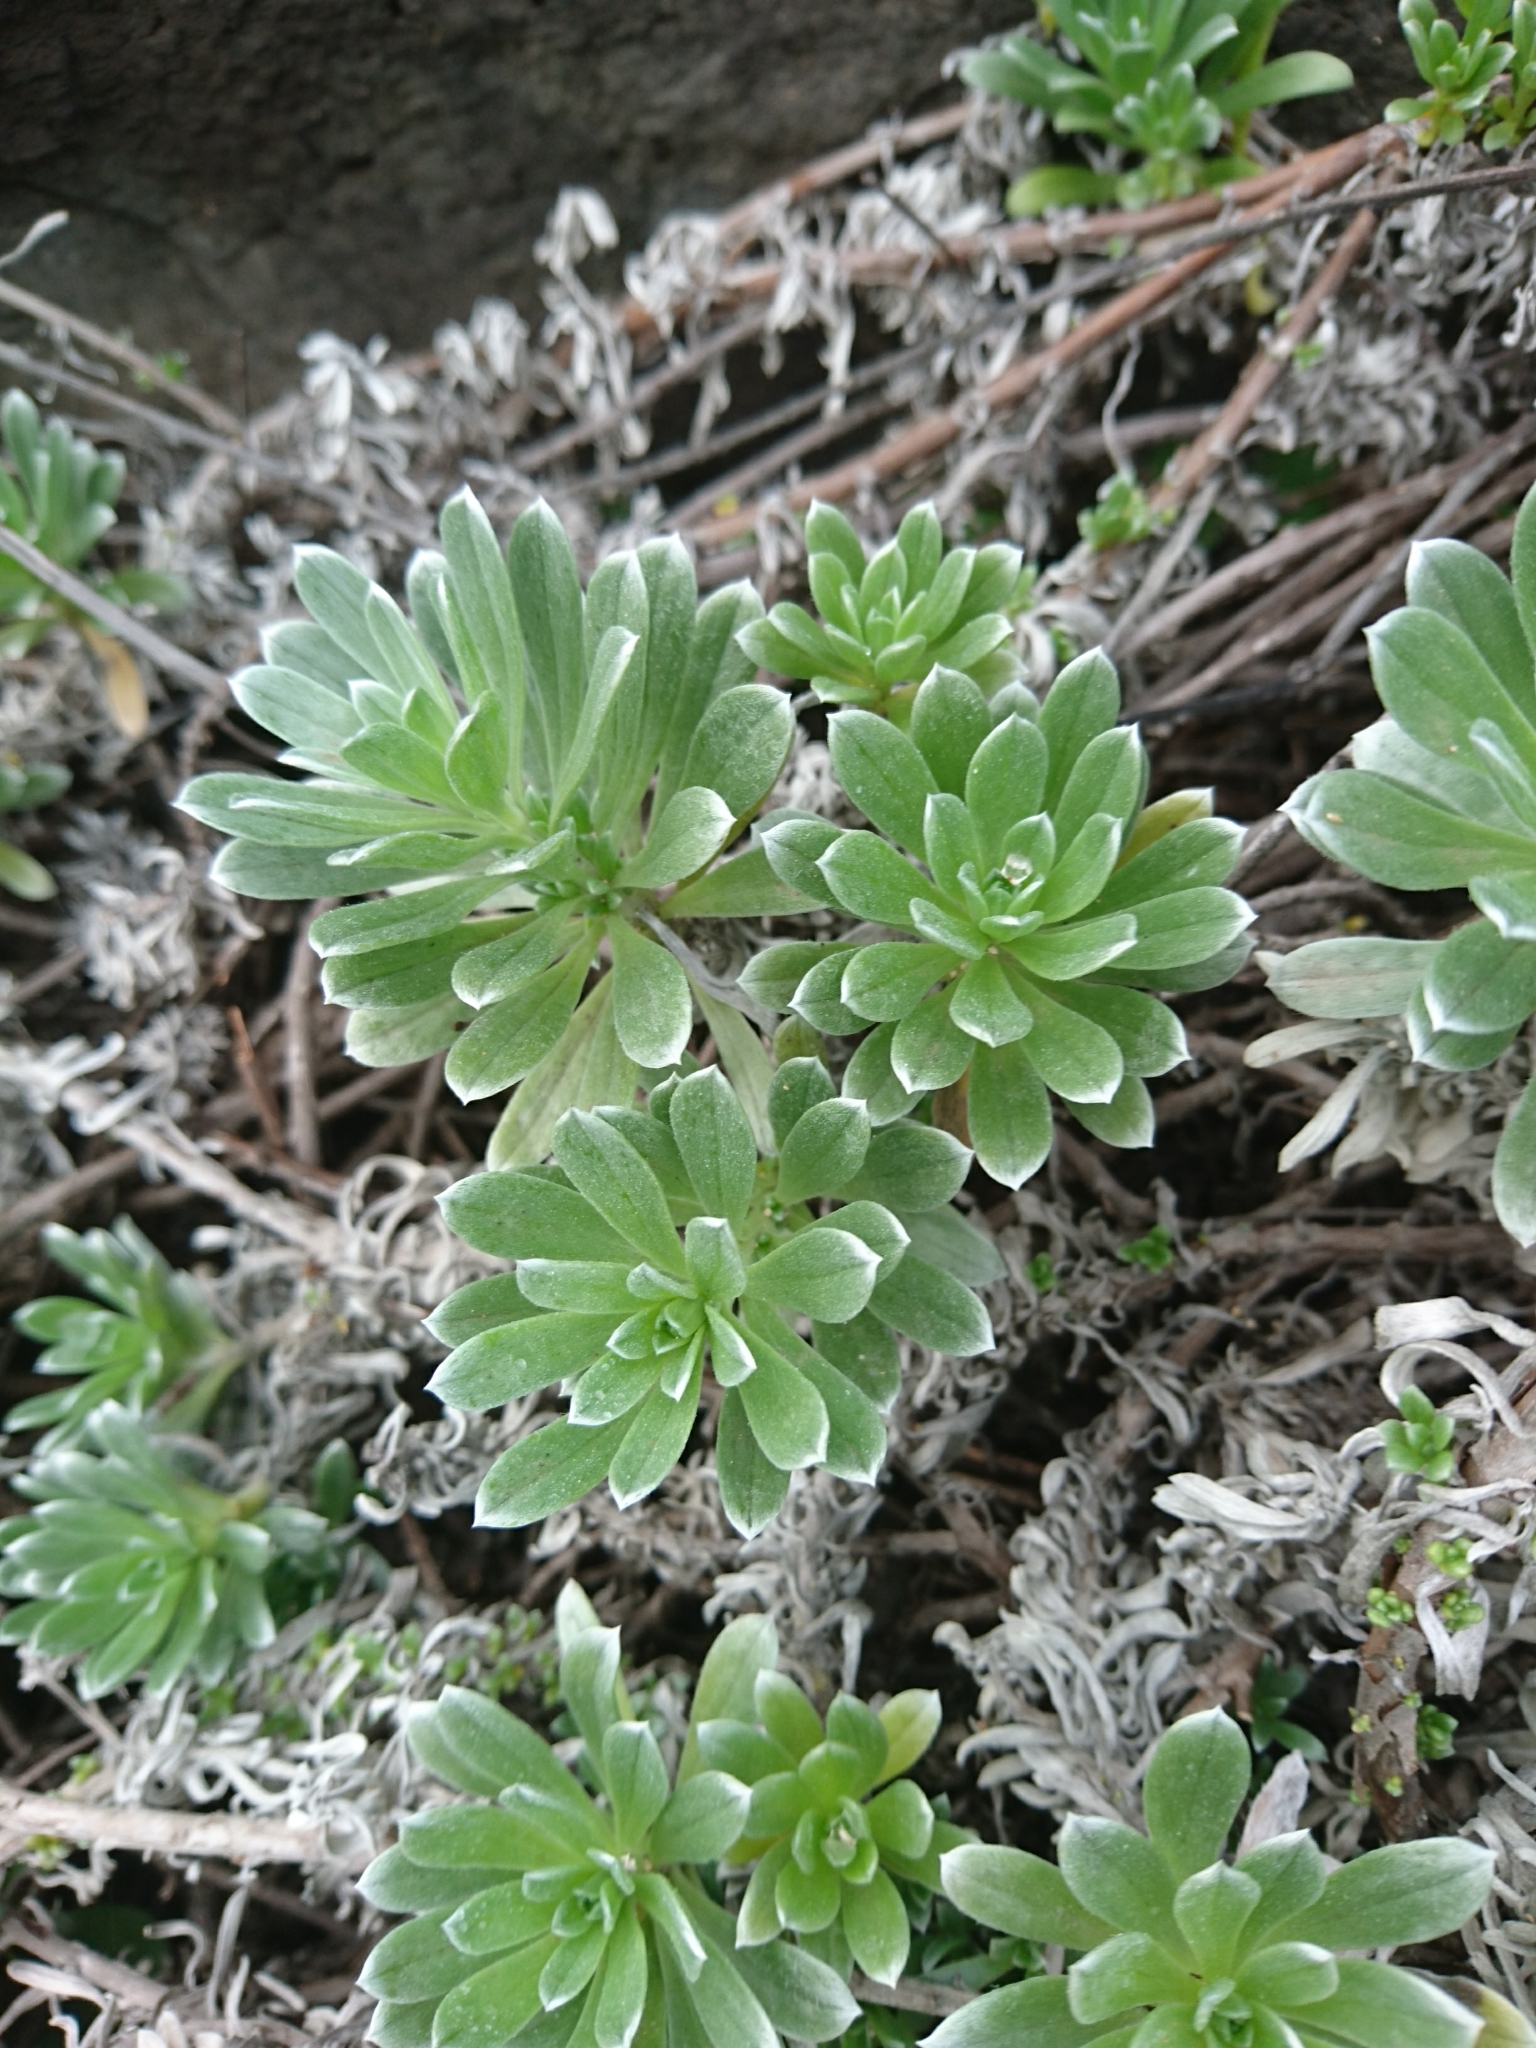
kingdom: Plantae
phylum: Tracheophyta
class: Magnoliopsida
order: Boraginales
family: Heliotropiaceae
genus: Heliotropium
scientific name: Heliotropium anomalum
